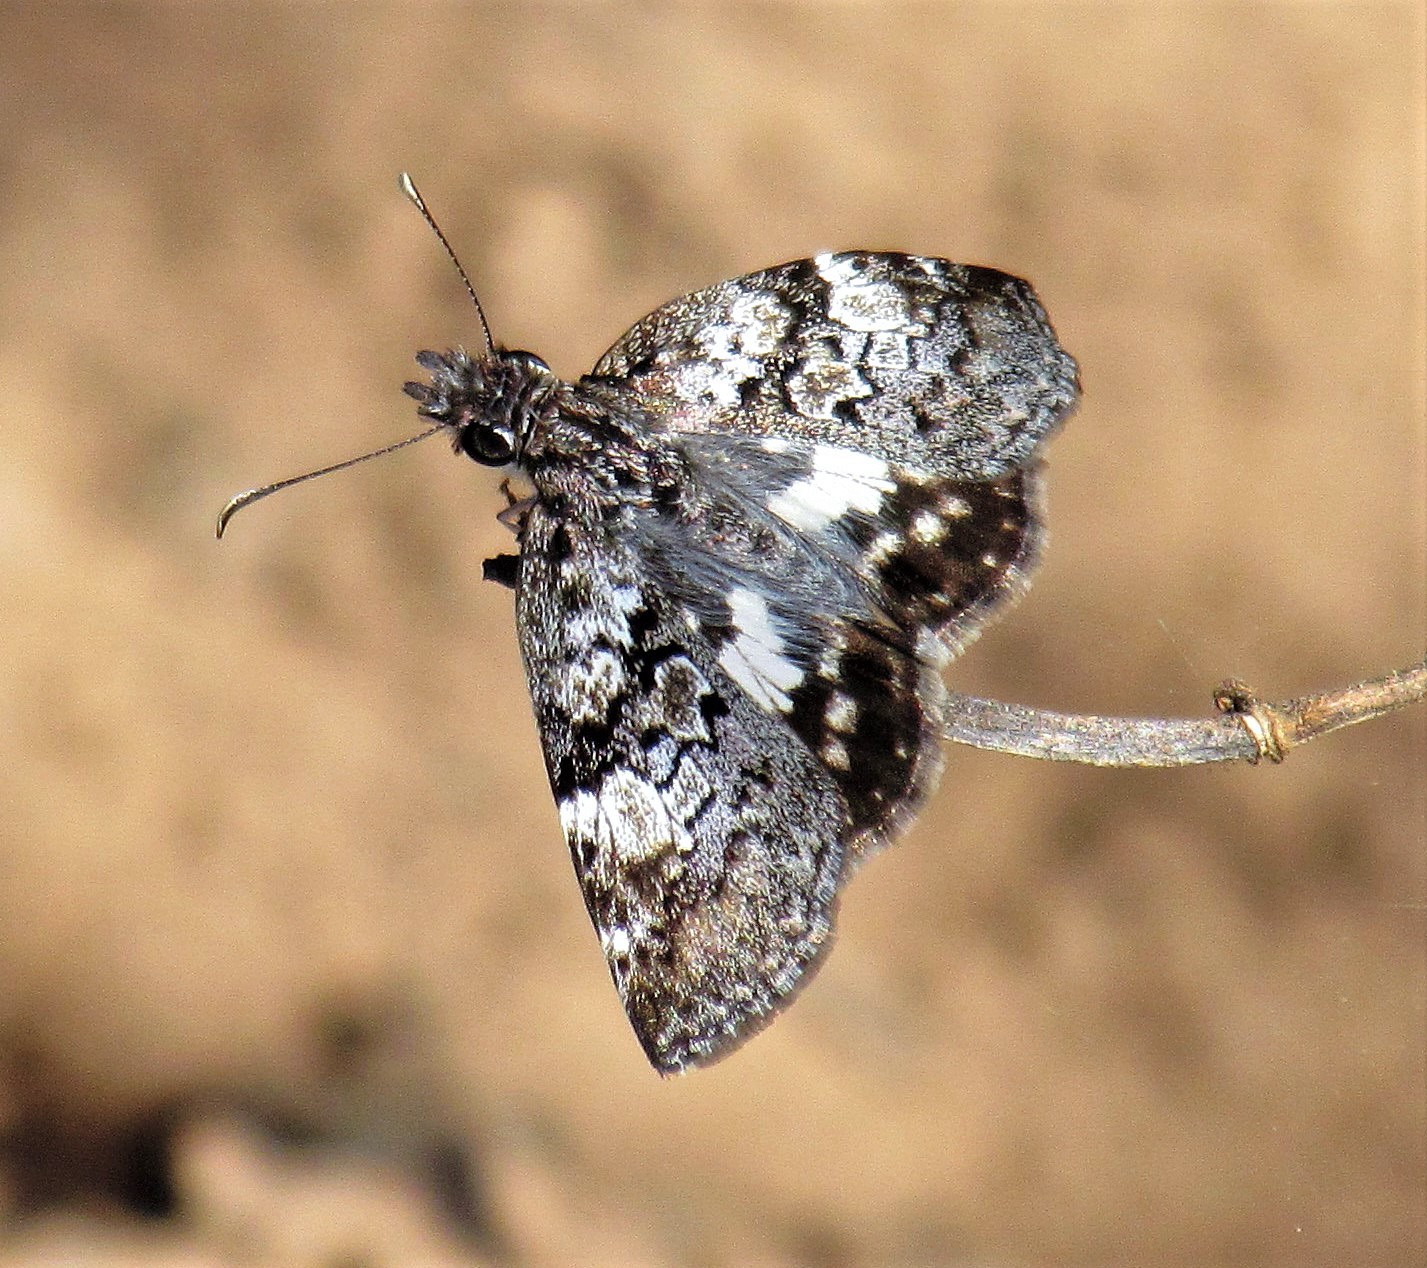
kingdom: Animalia
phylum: Arthropoda
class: Insecta
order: Lepidoptera
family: Hesperiidae
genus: Chiomara
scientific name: Chiomara asychis
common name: White-patterned skipper
